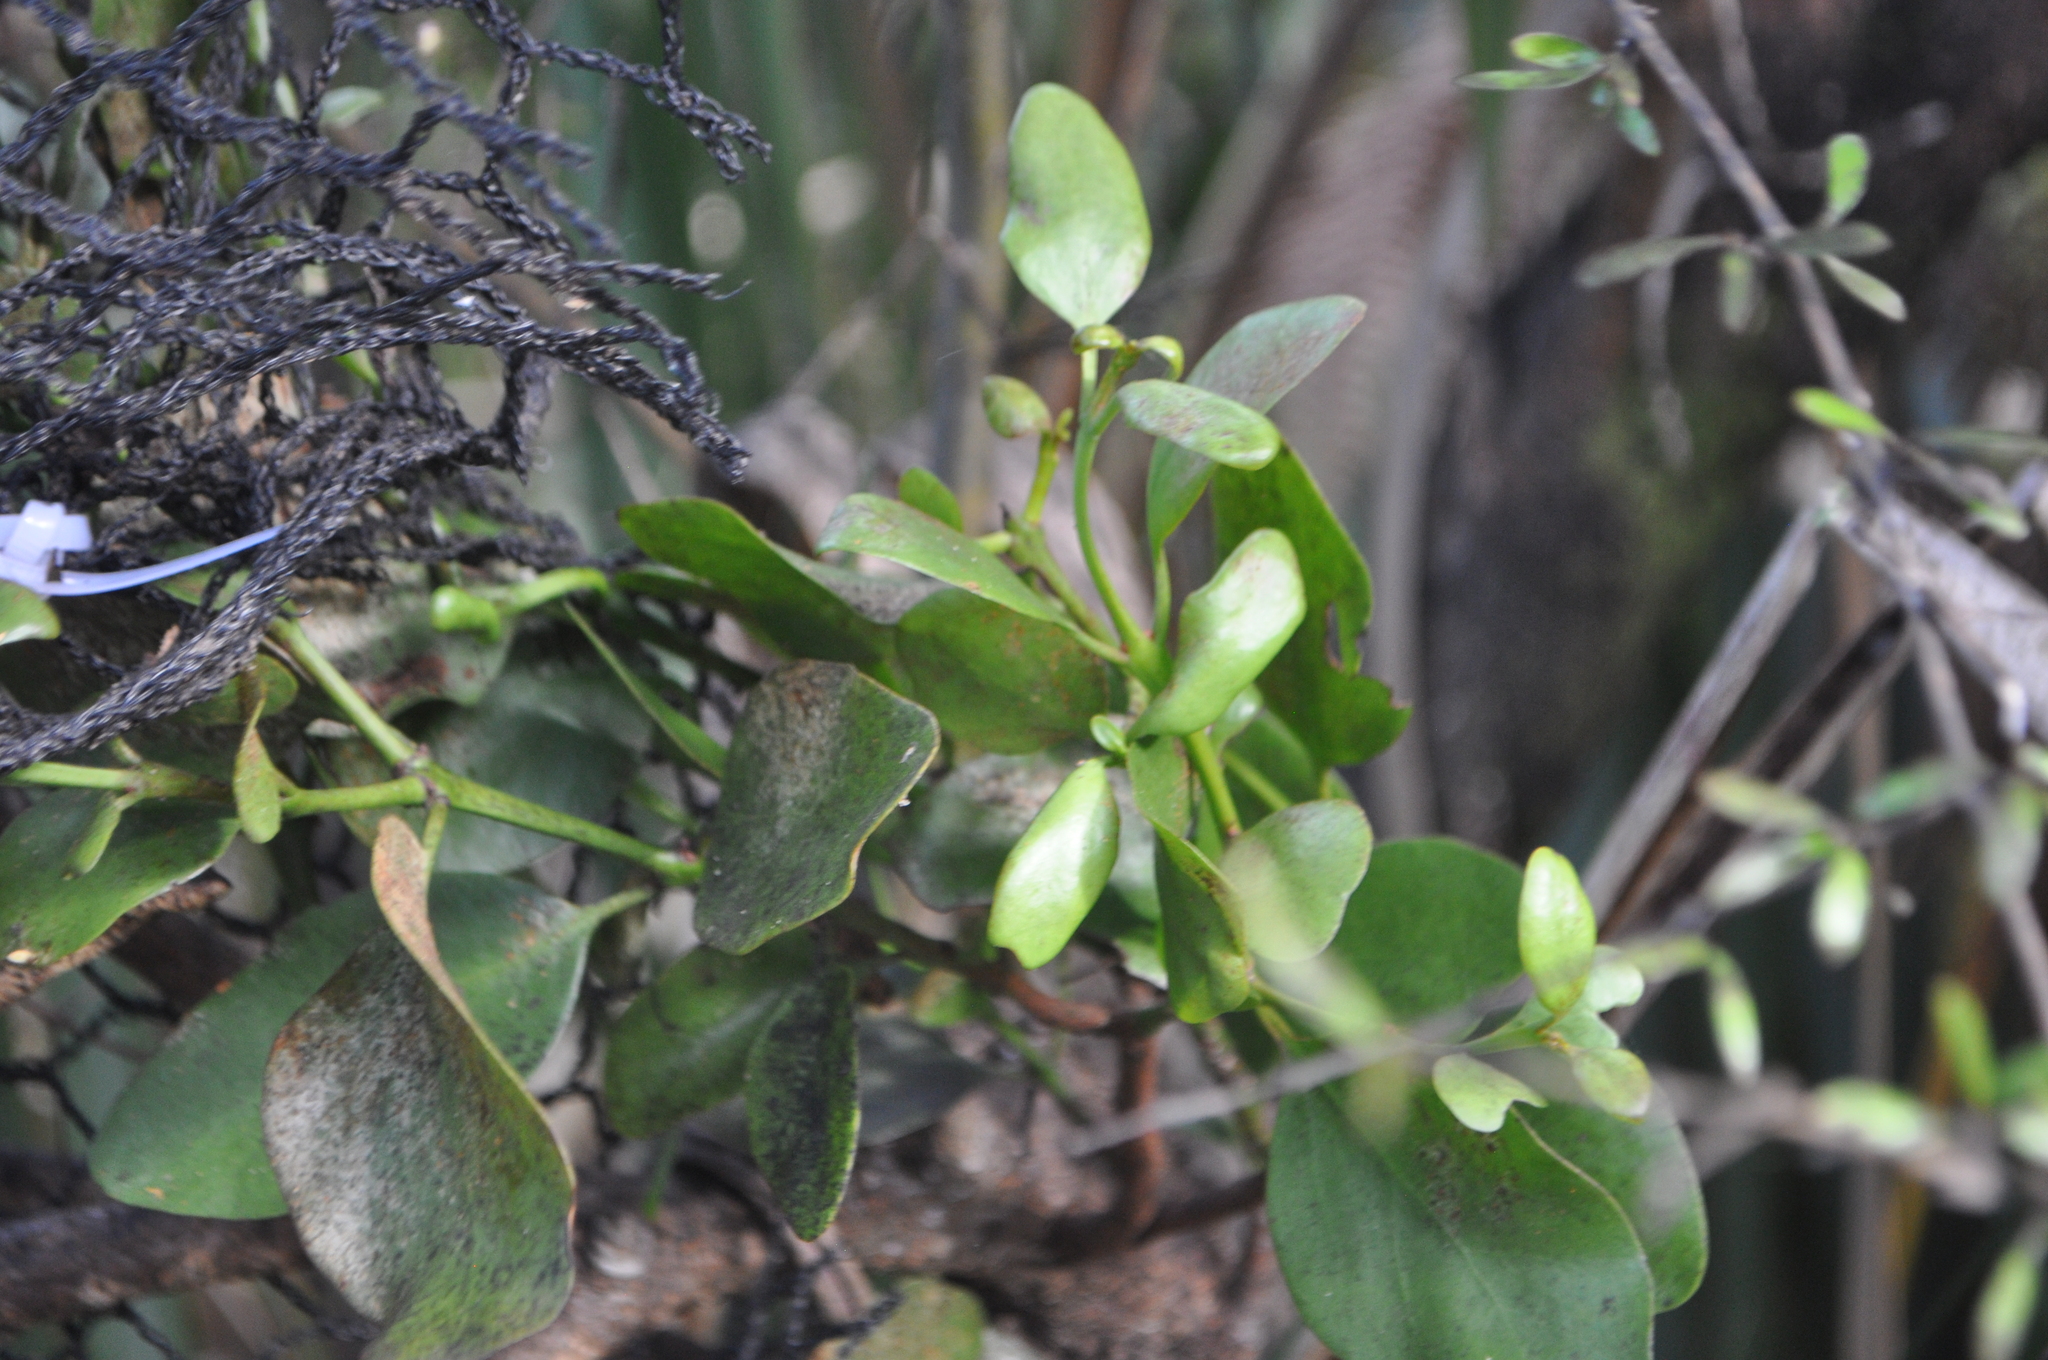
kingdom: Plantae
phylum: Tracheophyta
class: Magnoliopsida
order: Santalales
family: Loranthaceae
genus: Ileostylus
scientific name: Ileostylus micranthus
